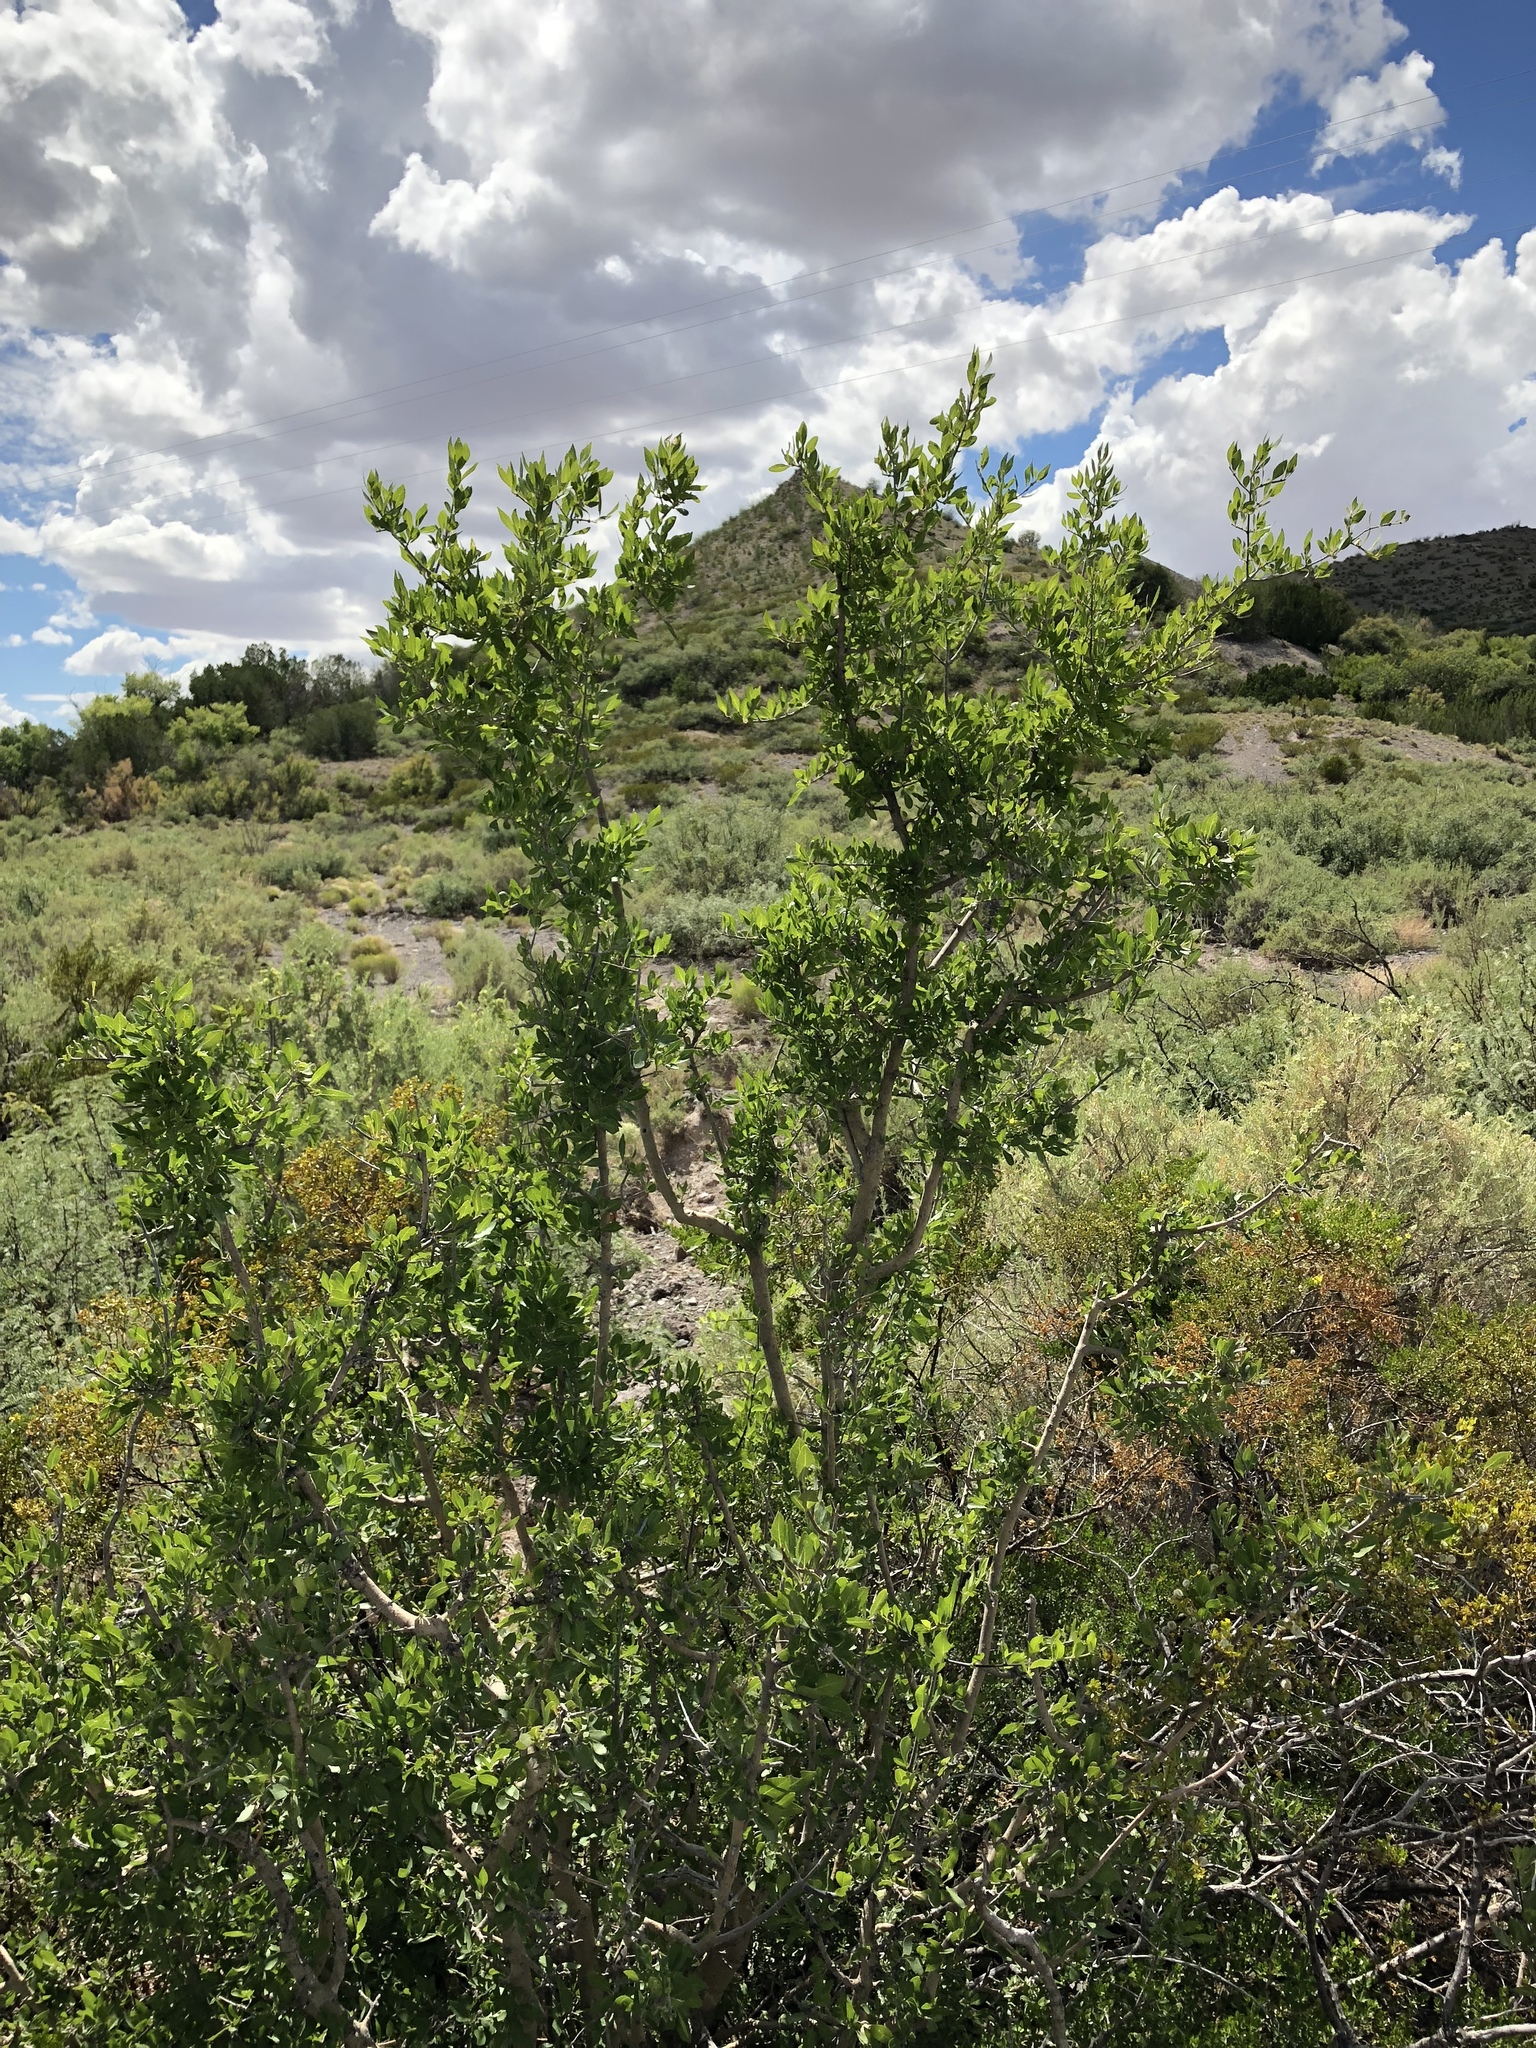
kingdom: Plantae
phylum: Tracheophyta
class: Magnoliopsida
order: Lamiales
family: Oleaceae
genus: Forestiera
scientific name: Forestiera pubescens
